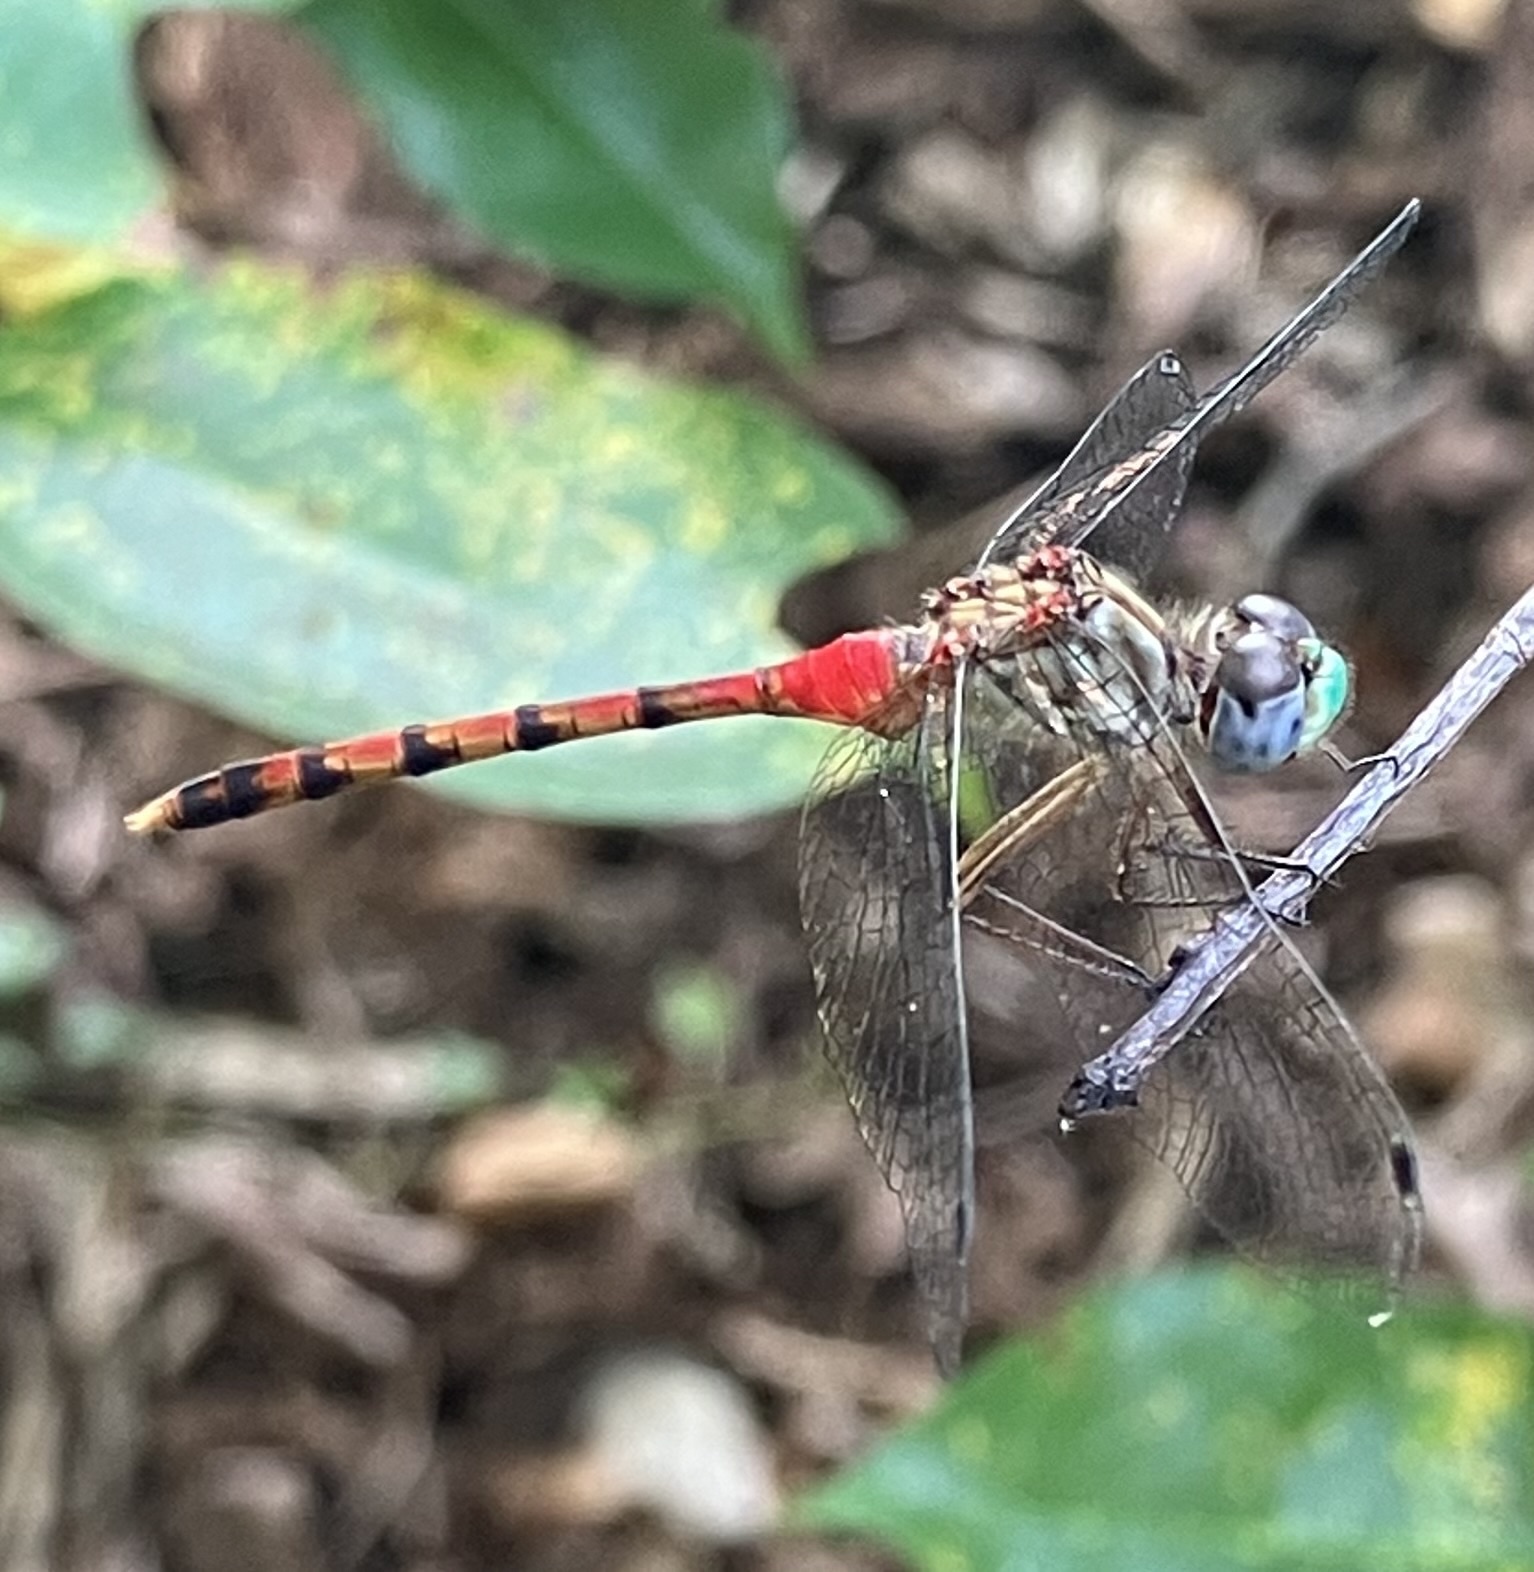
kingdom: Animalia
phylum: Arthropoda
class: Insecta
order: Odonata
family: Libellulidae
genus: Sympetrum
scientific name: Sympetrum ambiguum
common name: Blue-faced meadowhawk
